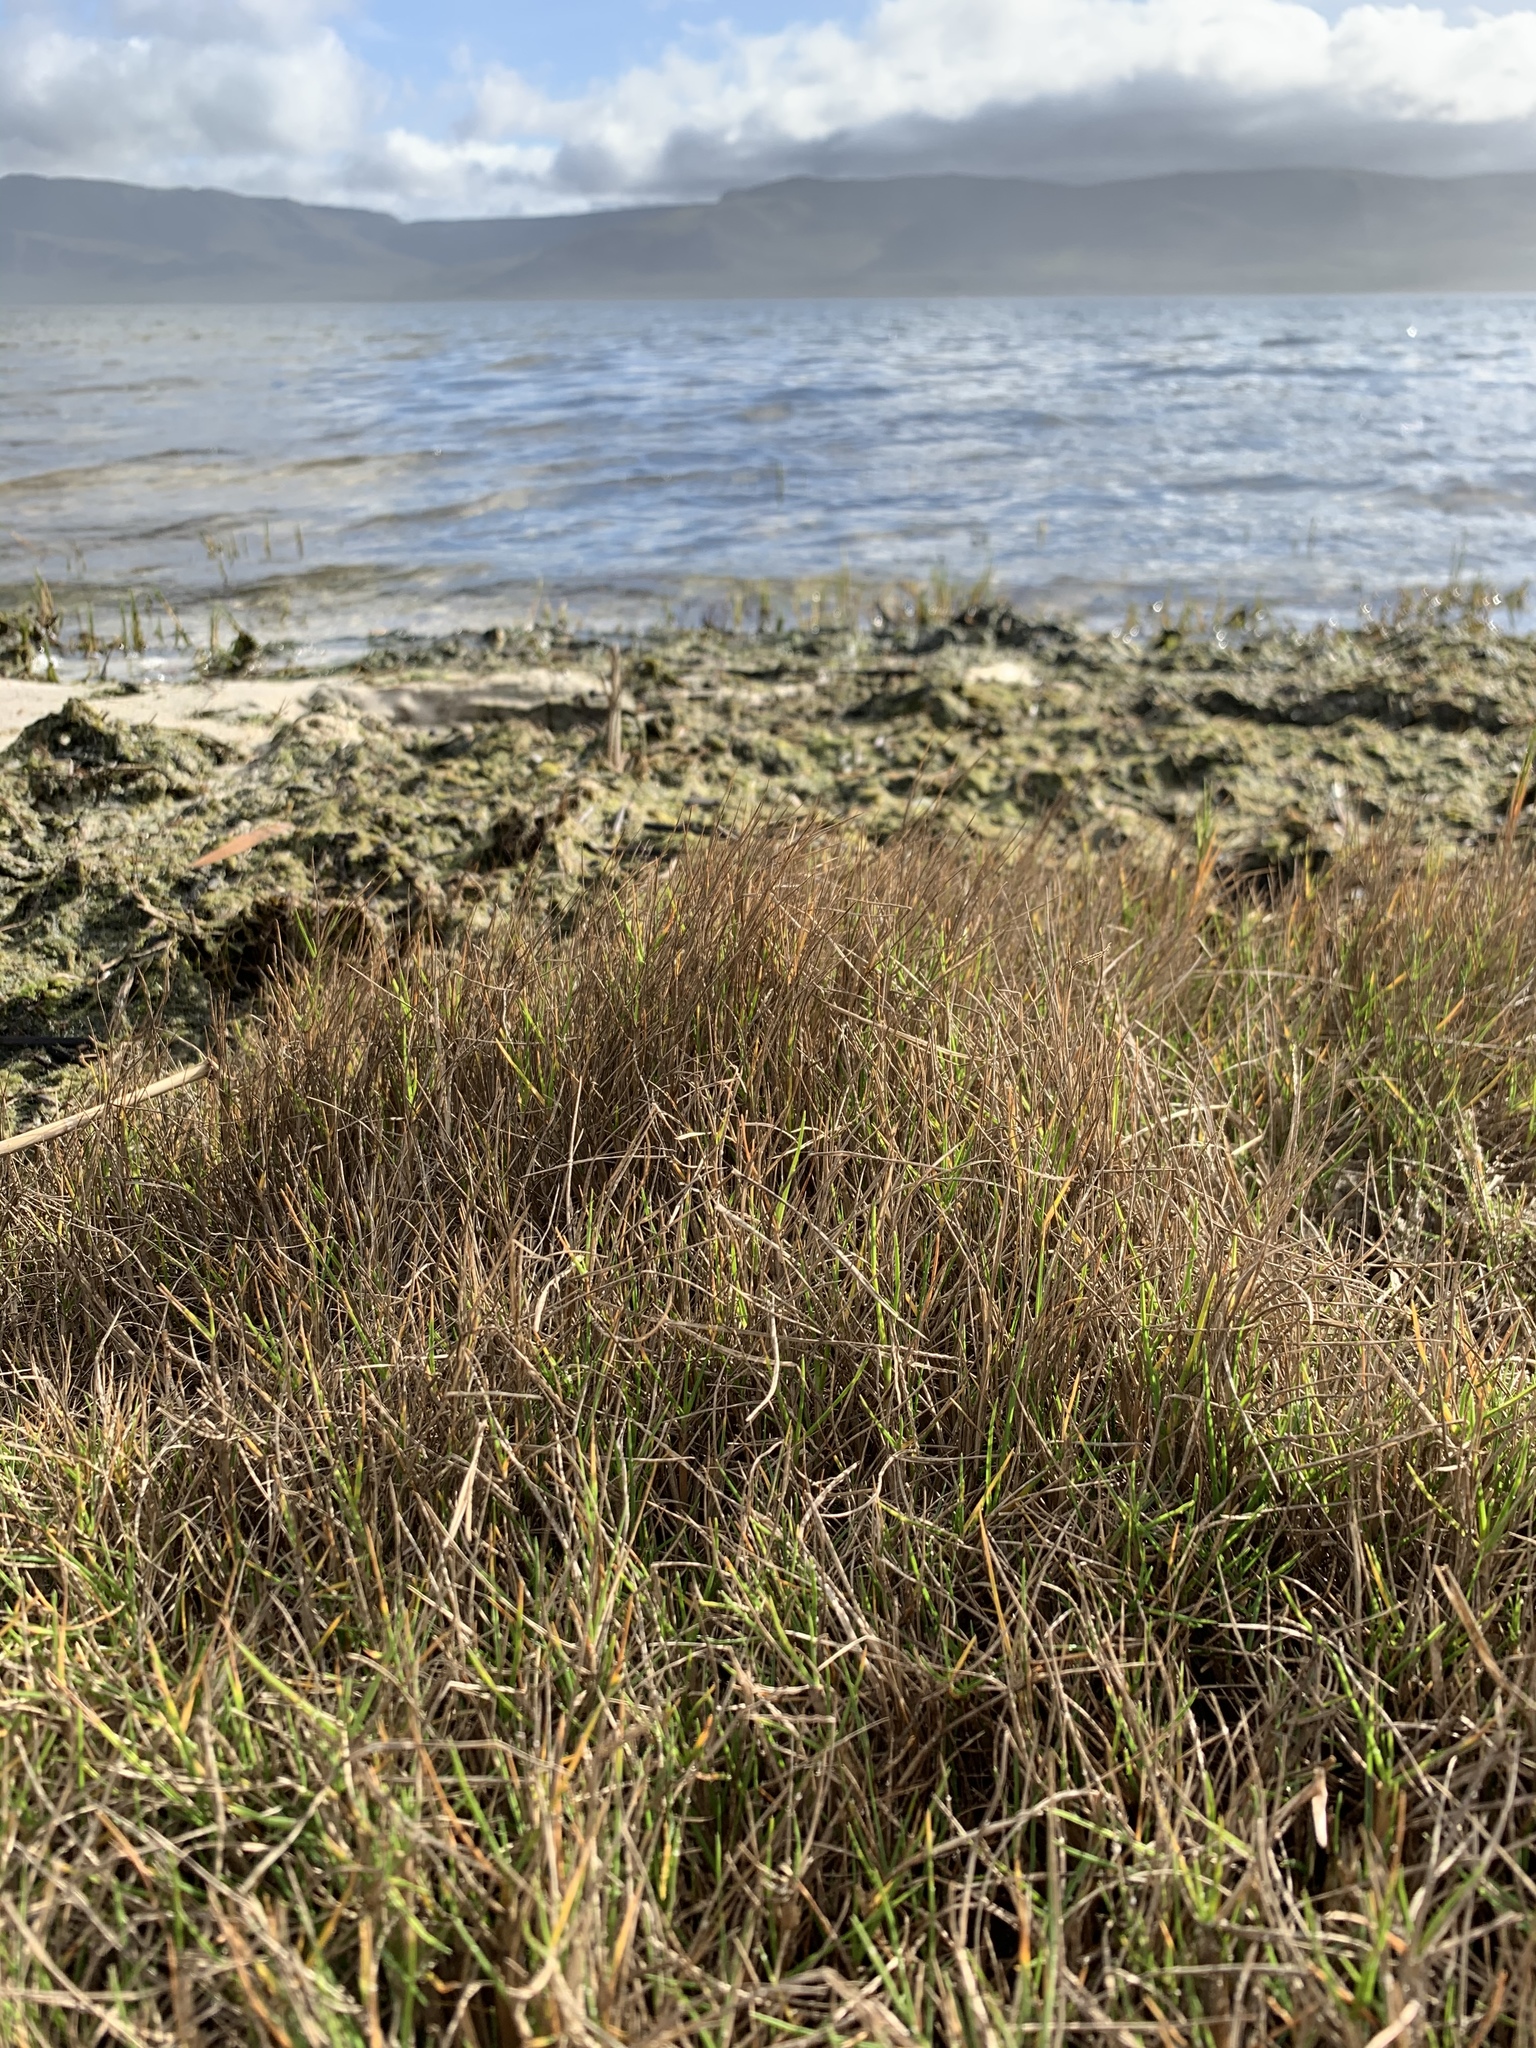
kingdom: Plantae
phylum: Tracheophyta
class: Liliopsida
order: Poales
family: Poaceae
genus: Cynodon
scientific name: Cynodon dactylon
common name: Bermuda grass
